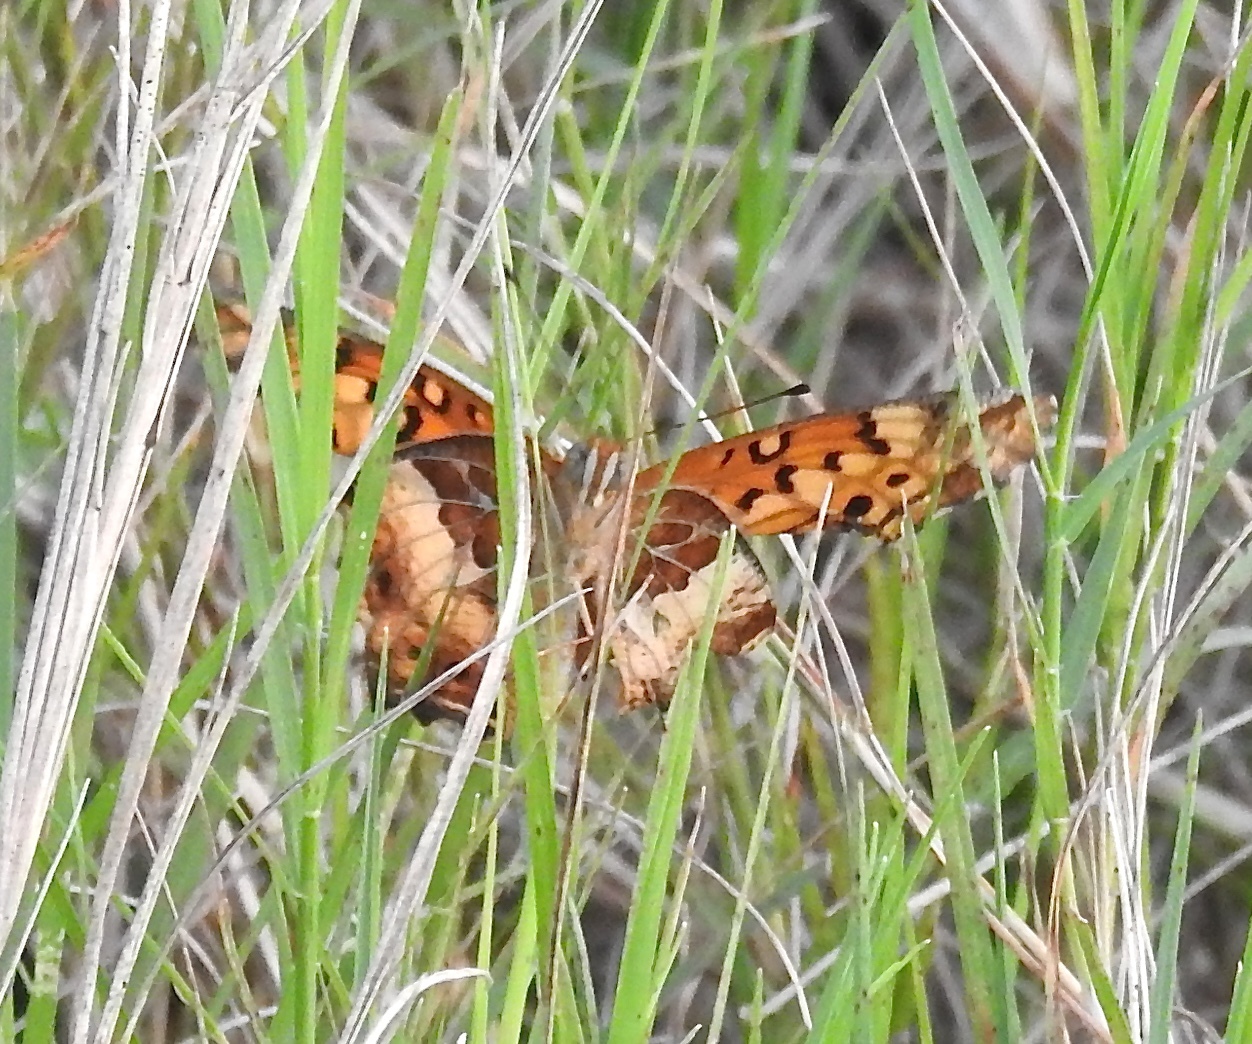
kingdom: Animalia
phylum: Arthropoda
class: Insecta
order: Lepidoptera
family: Nymphalidae
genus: Euptoieta
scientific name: Euptoieta claudia
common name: Variegated fritillary
